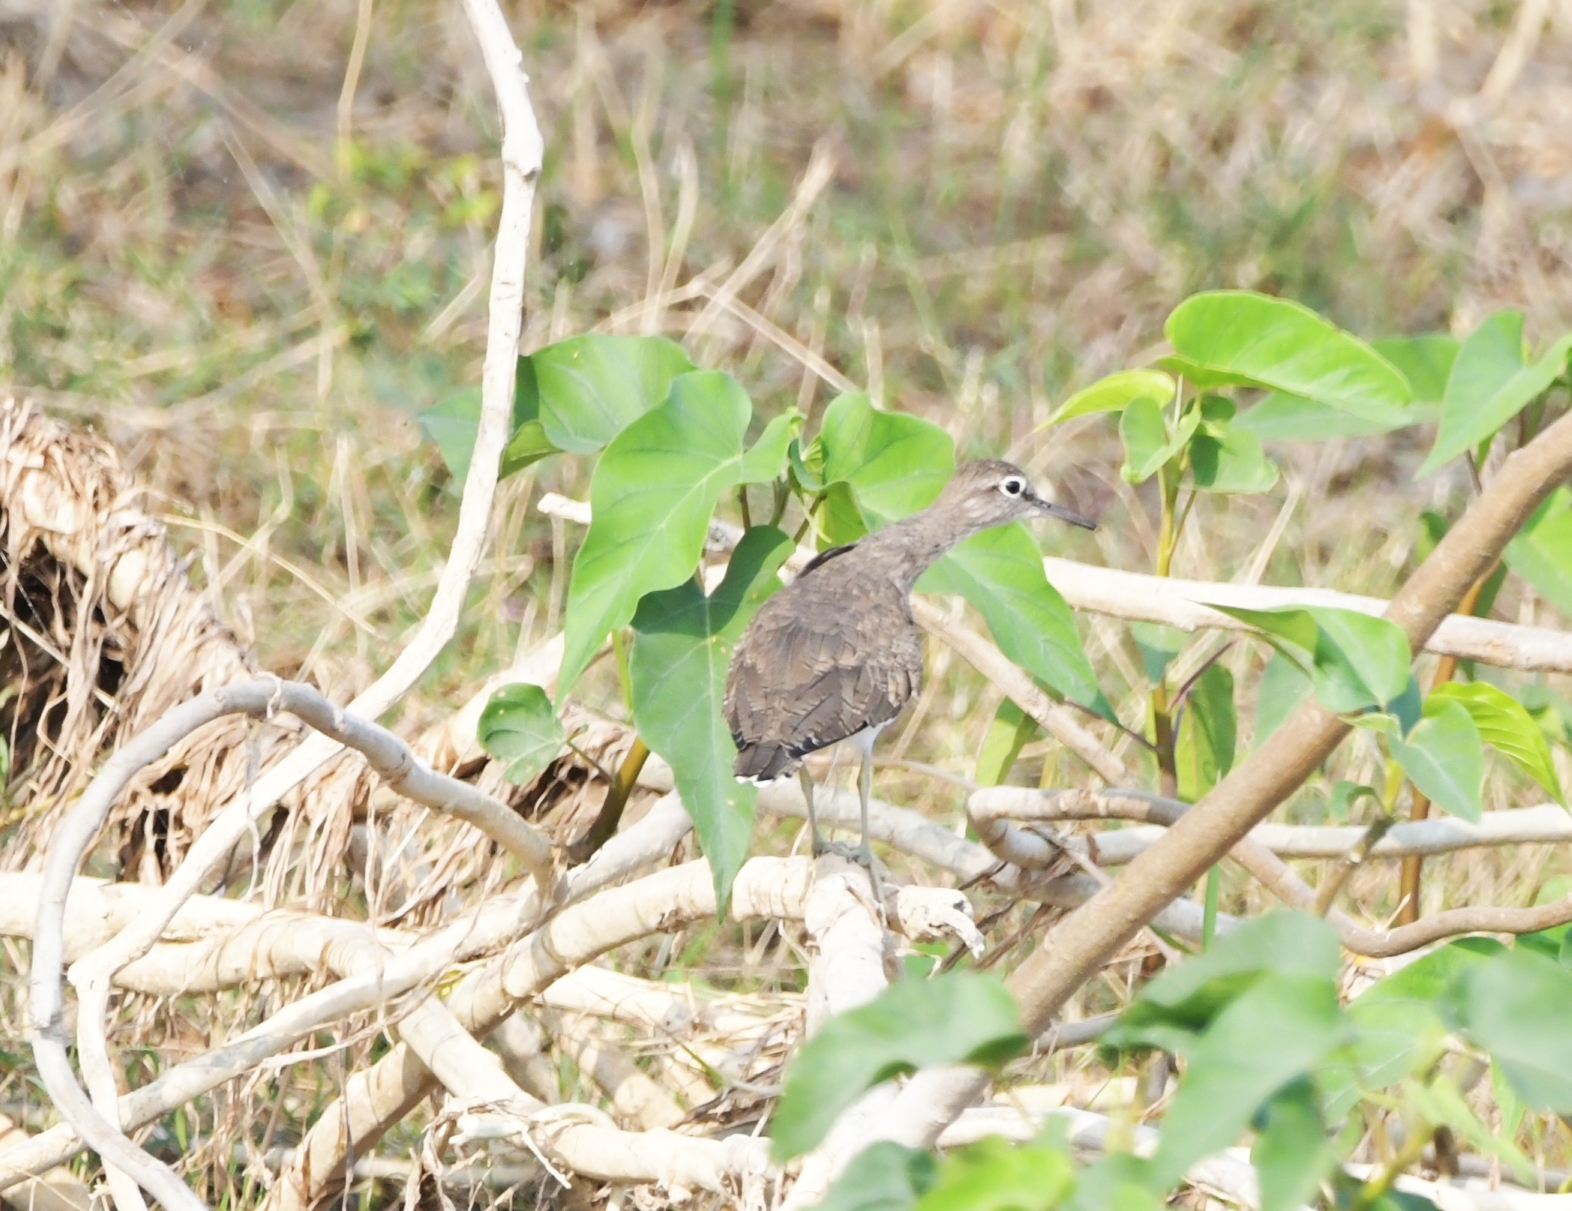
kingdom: Animalia
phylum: Chordata
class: Aves
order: Charadriiformes
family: Scolopacidae
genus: Actitis
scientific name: Actitis hypoleucos
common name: Common sandpiper
